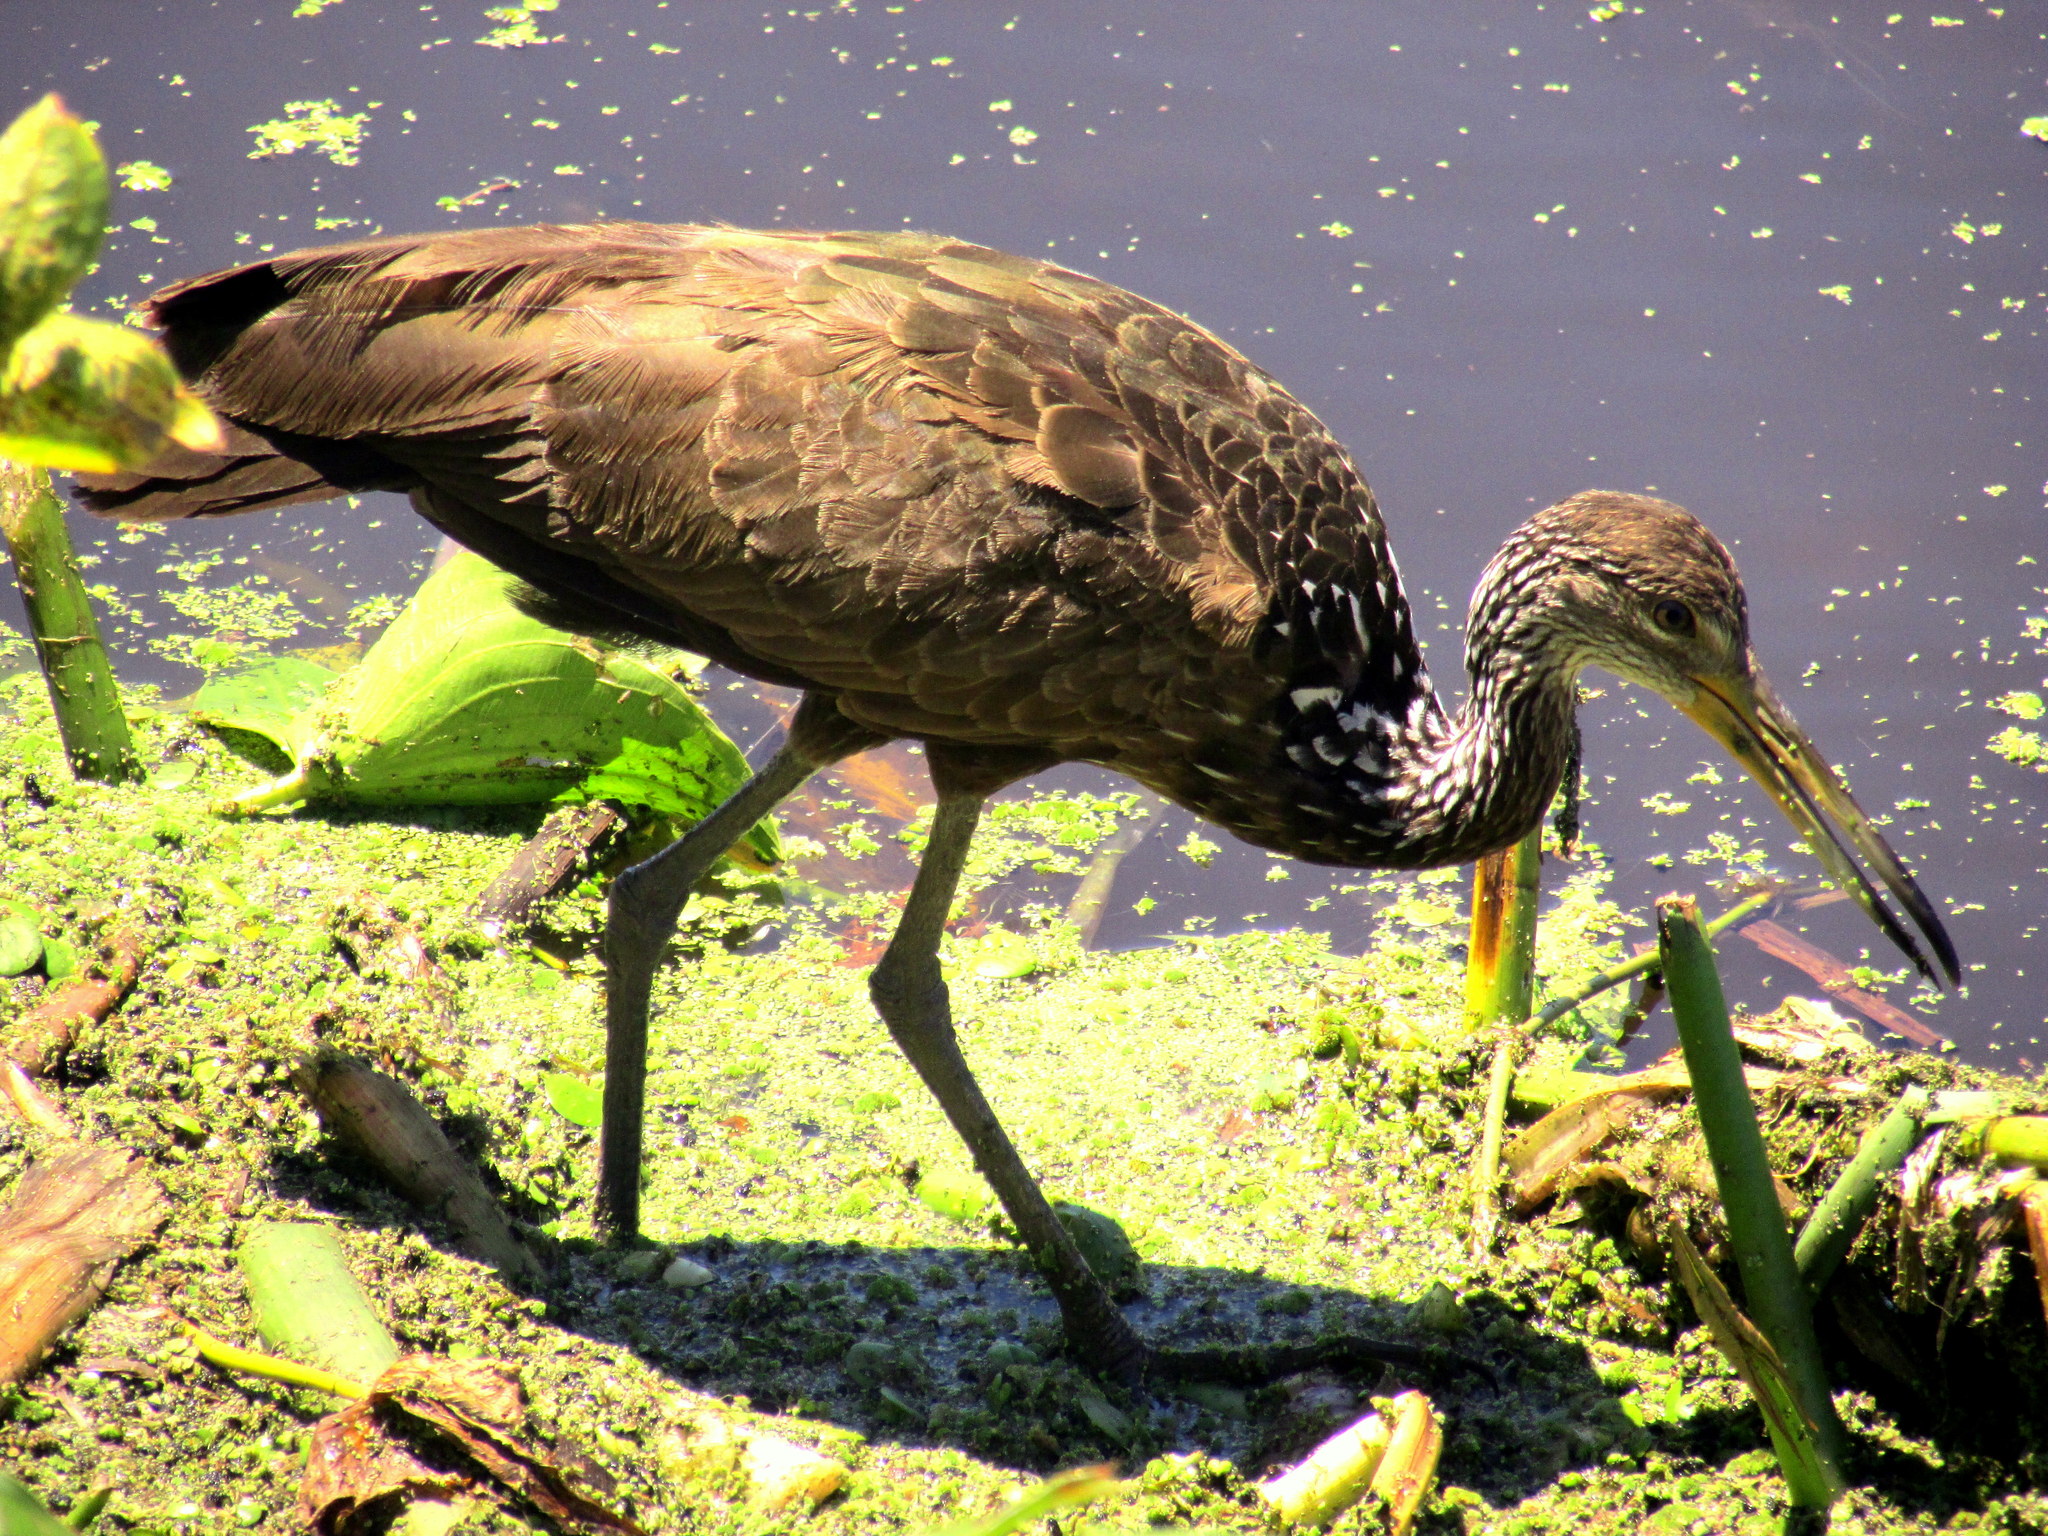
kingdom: Animalia
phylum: Chordata
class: Aves
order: Gruiformes
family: Aramidae
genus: Aramus
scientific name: Aramus guarauna
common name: Limpkin
